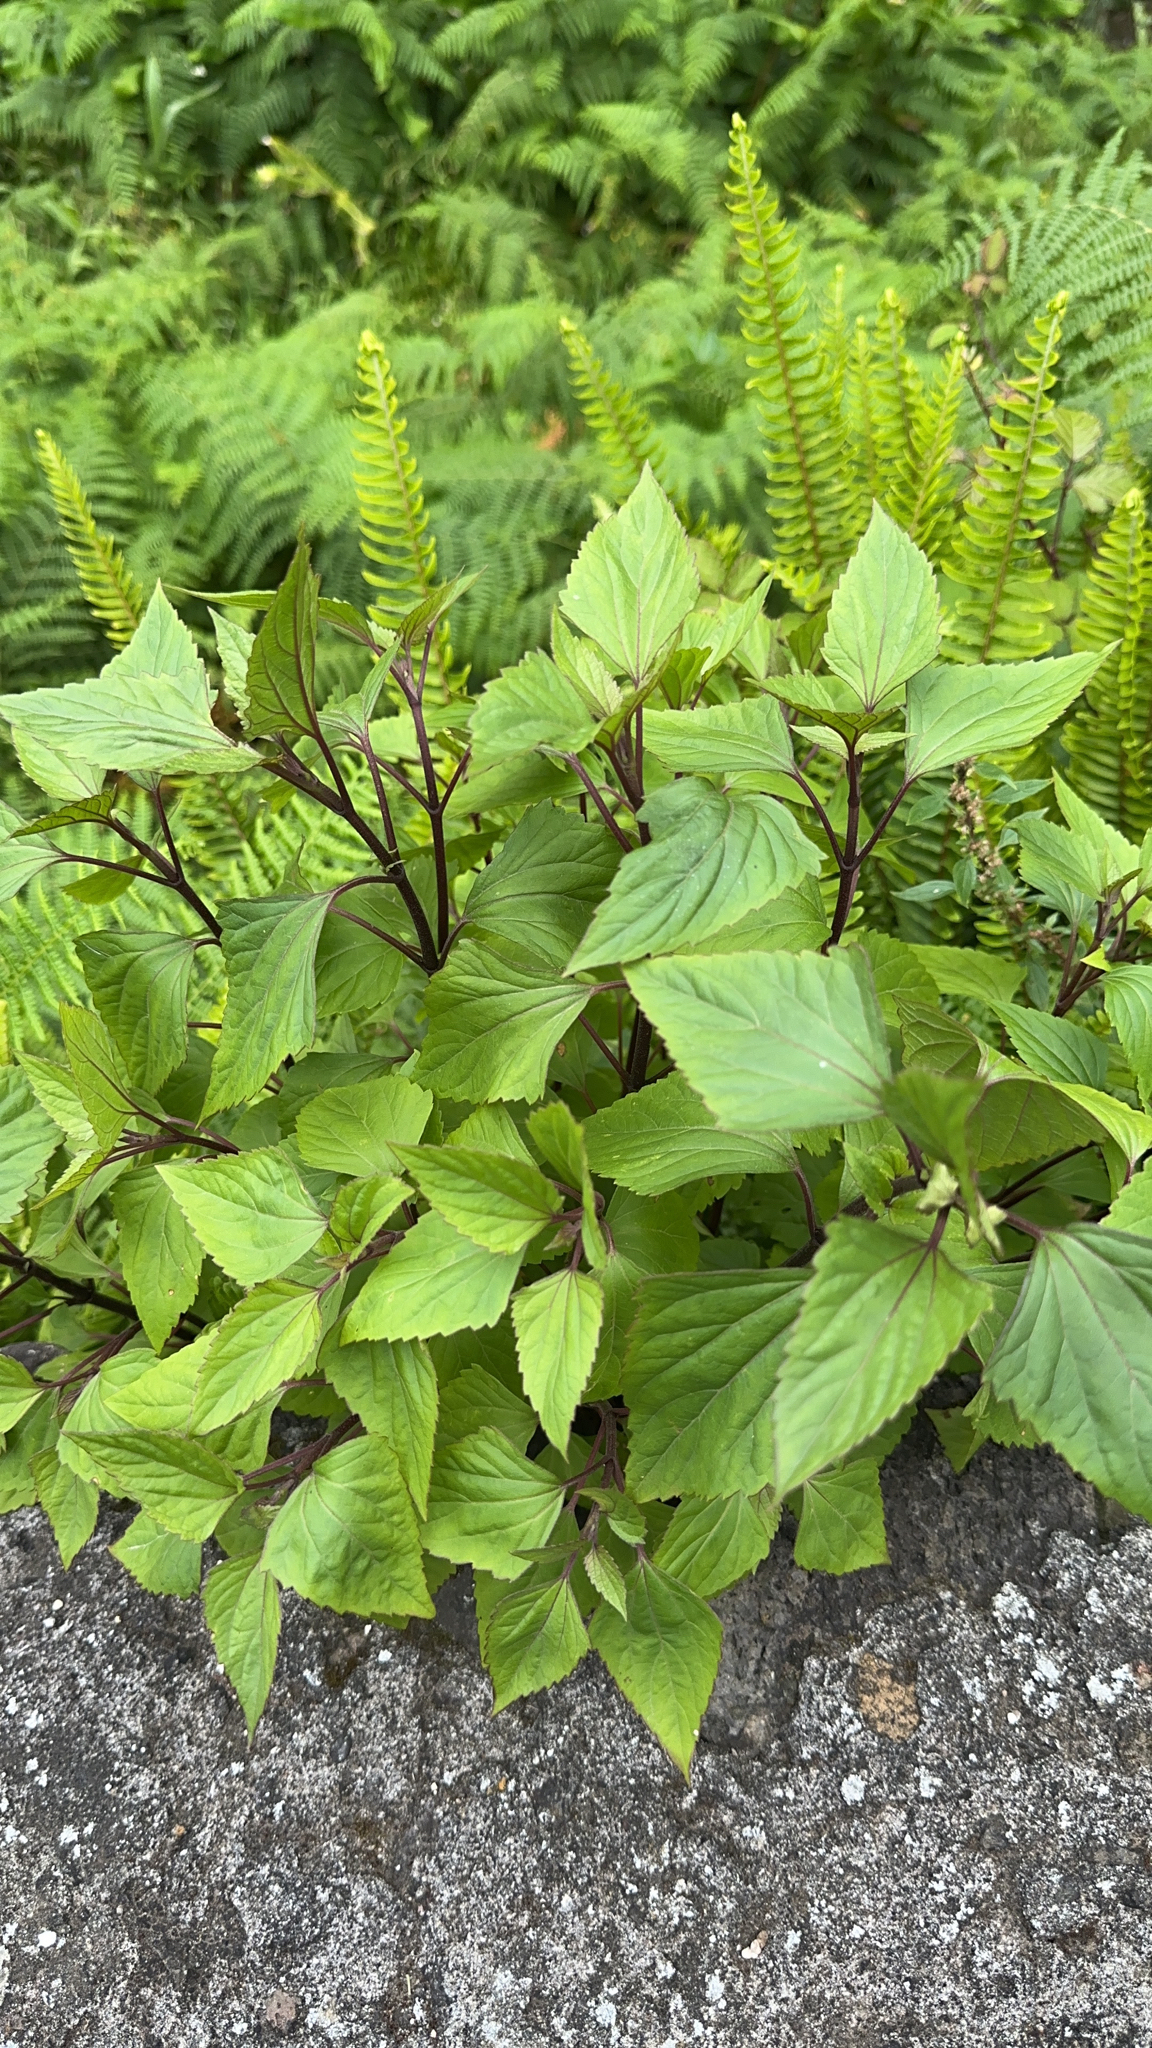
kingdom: Plantae
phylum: Tracheophyta
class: Magnoliopsida
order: Asterales
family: Asteraceae
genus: Ageratina
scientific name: Ageratina adenophora
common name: Sticky snakeroot
